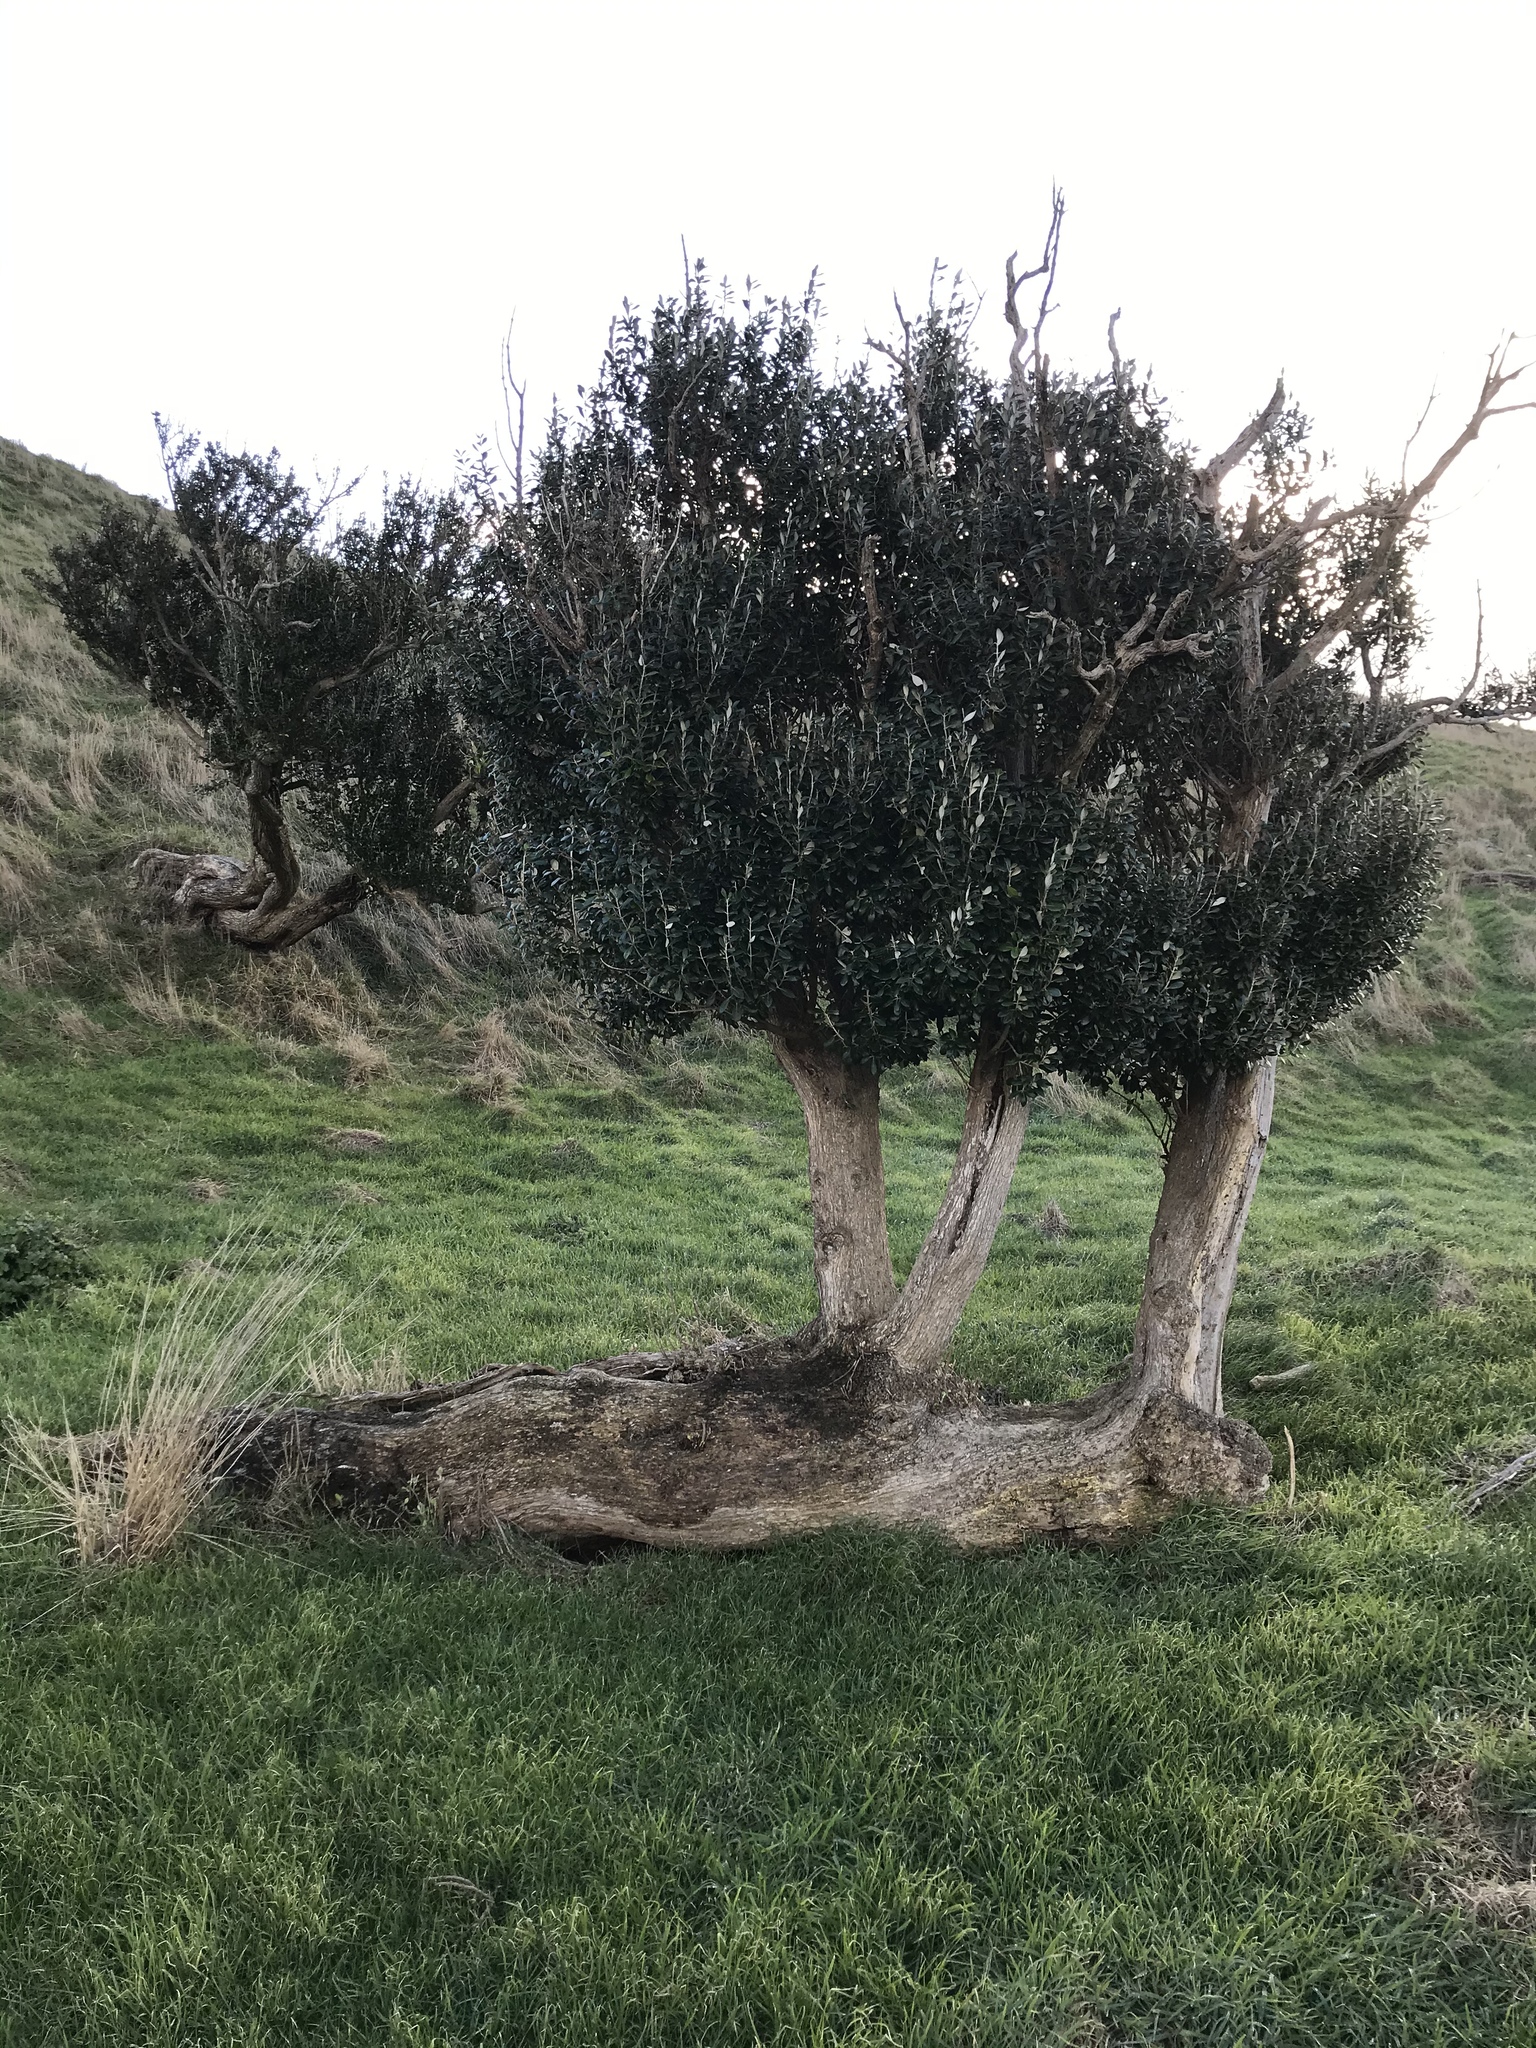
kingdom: Plantae
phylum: Tracheophyta
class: Magnoliopsida
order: Asterales
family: Asteraceae
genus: Olearia
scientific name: Olearia traversiorum
